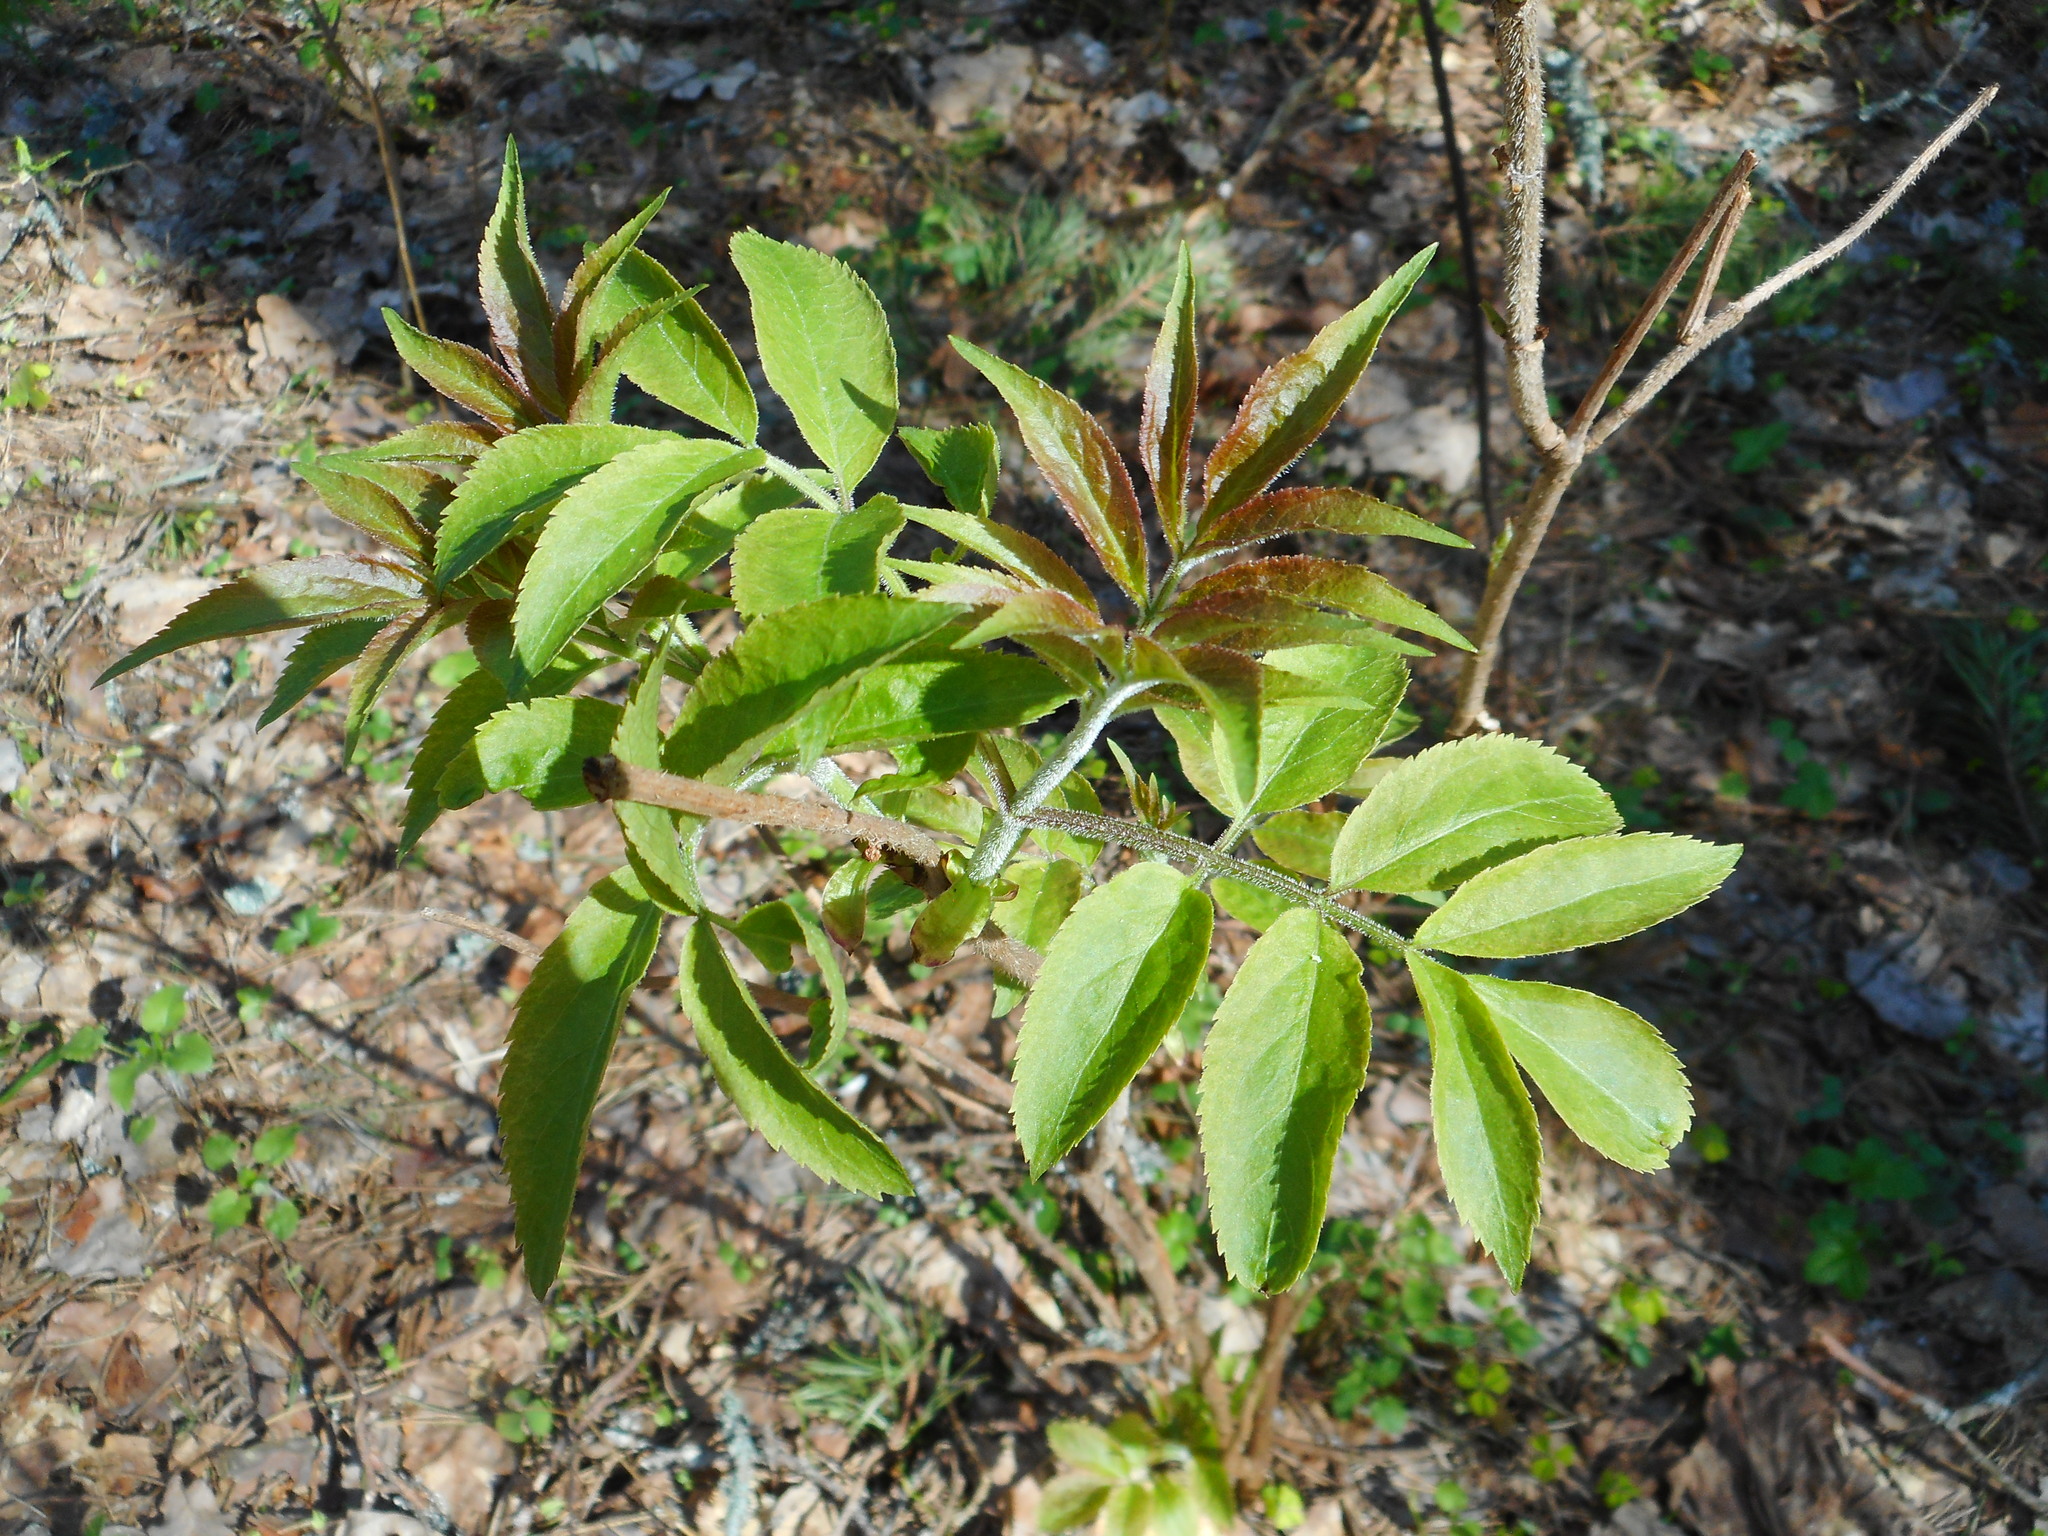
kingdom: Plantae
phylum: Tracheophyta
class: Magnoliopsida
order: Dipsacales
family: Viburnaceae
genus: Sambucus
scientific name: Sambucus racemosa
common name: Red-berried elder
